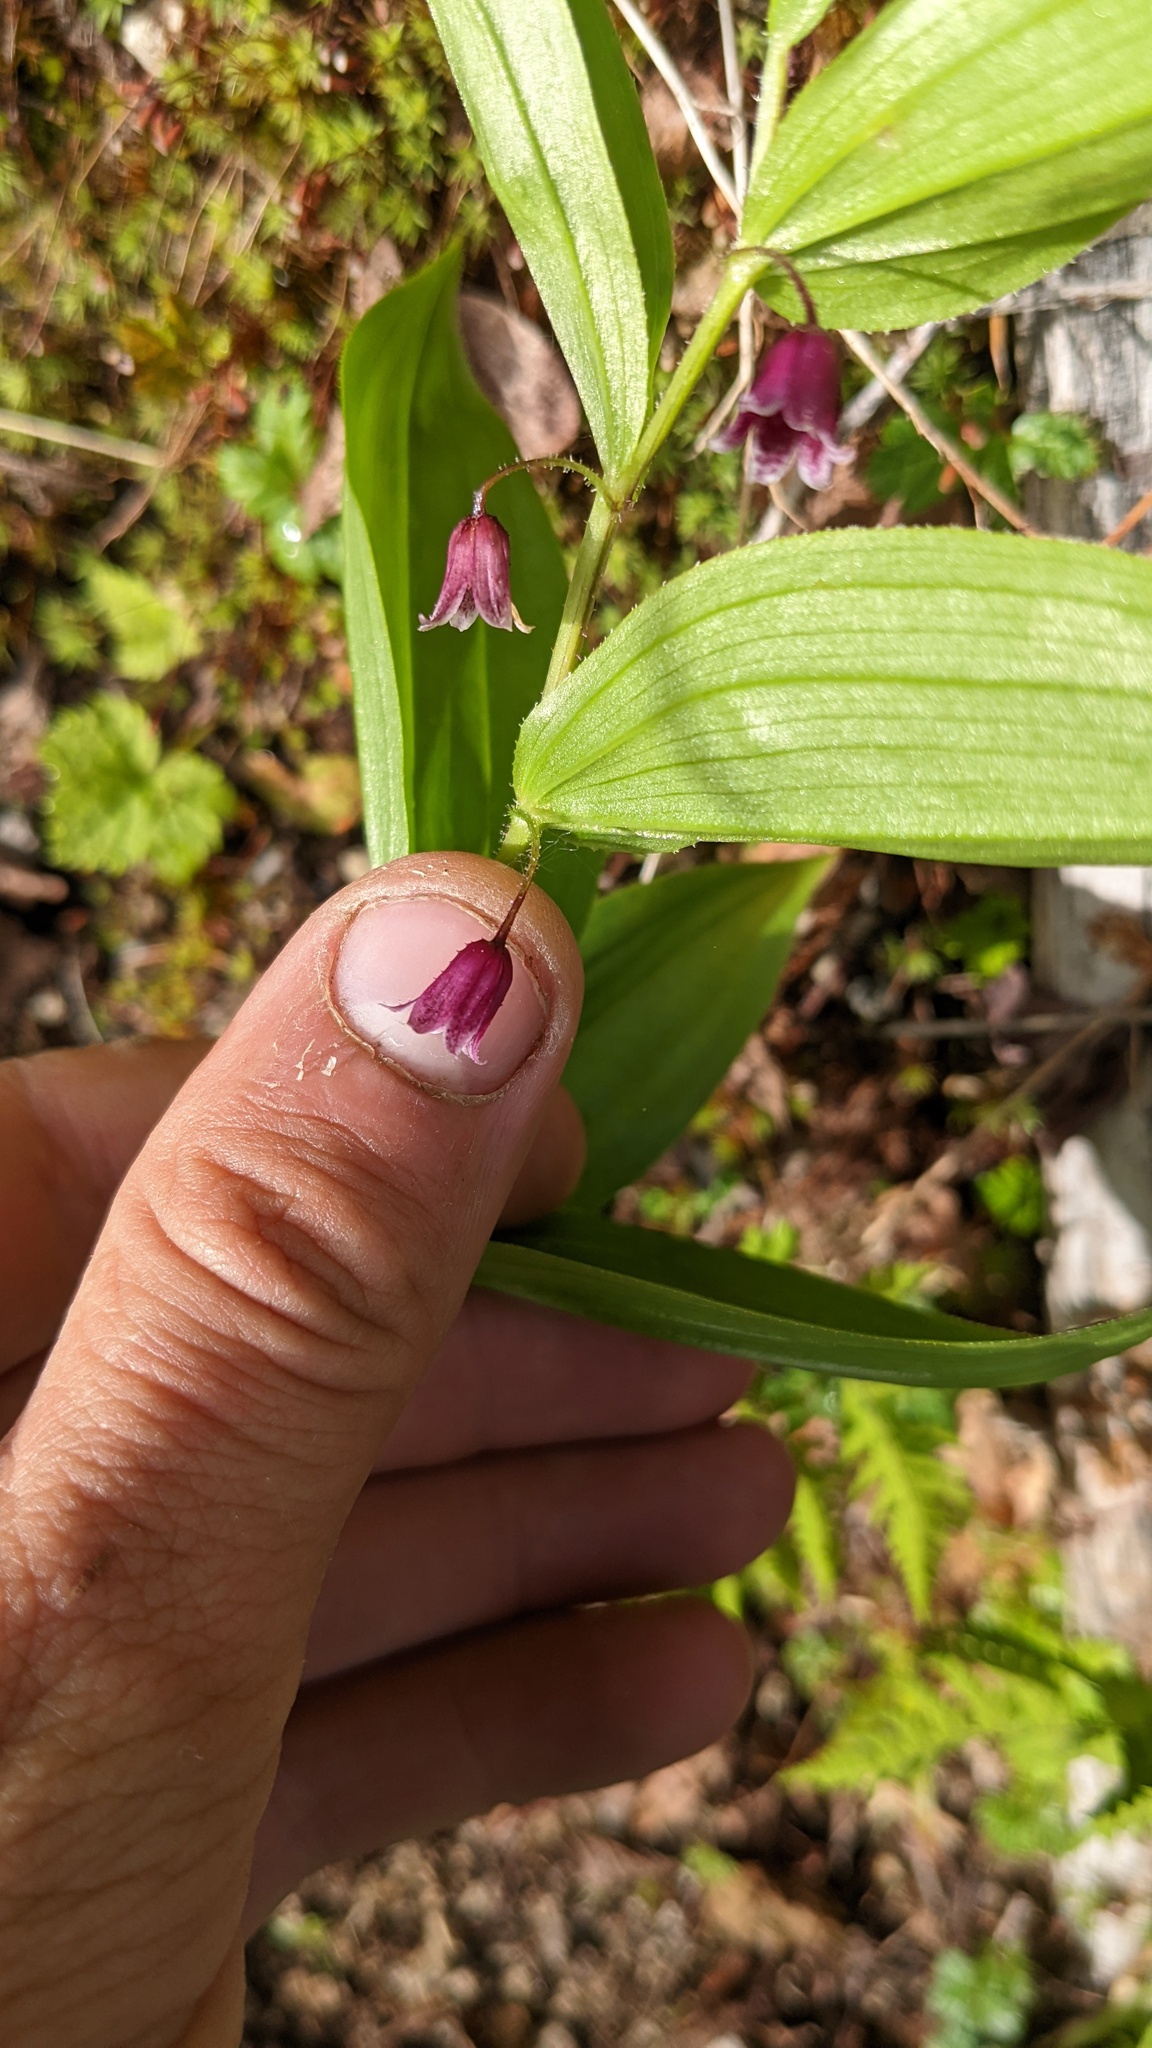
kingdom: Plantae
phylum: Tracheophyta
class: Liliopsida
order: Liliales
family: Liliaceae
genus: Streptopus
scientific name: Streptopus lanceolatus
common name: Rose mandarin
